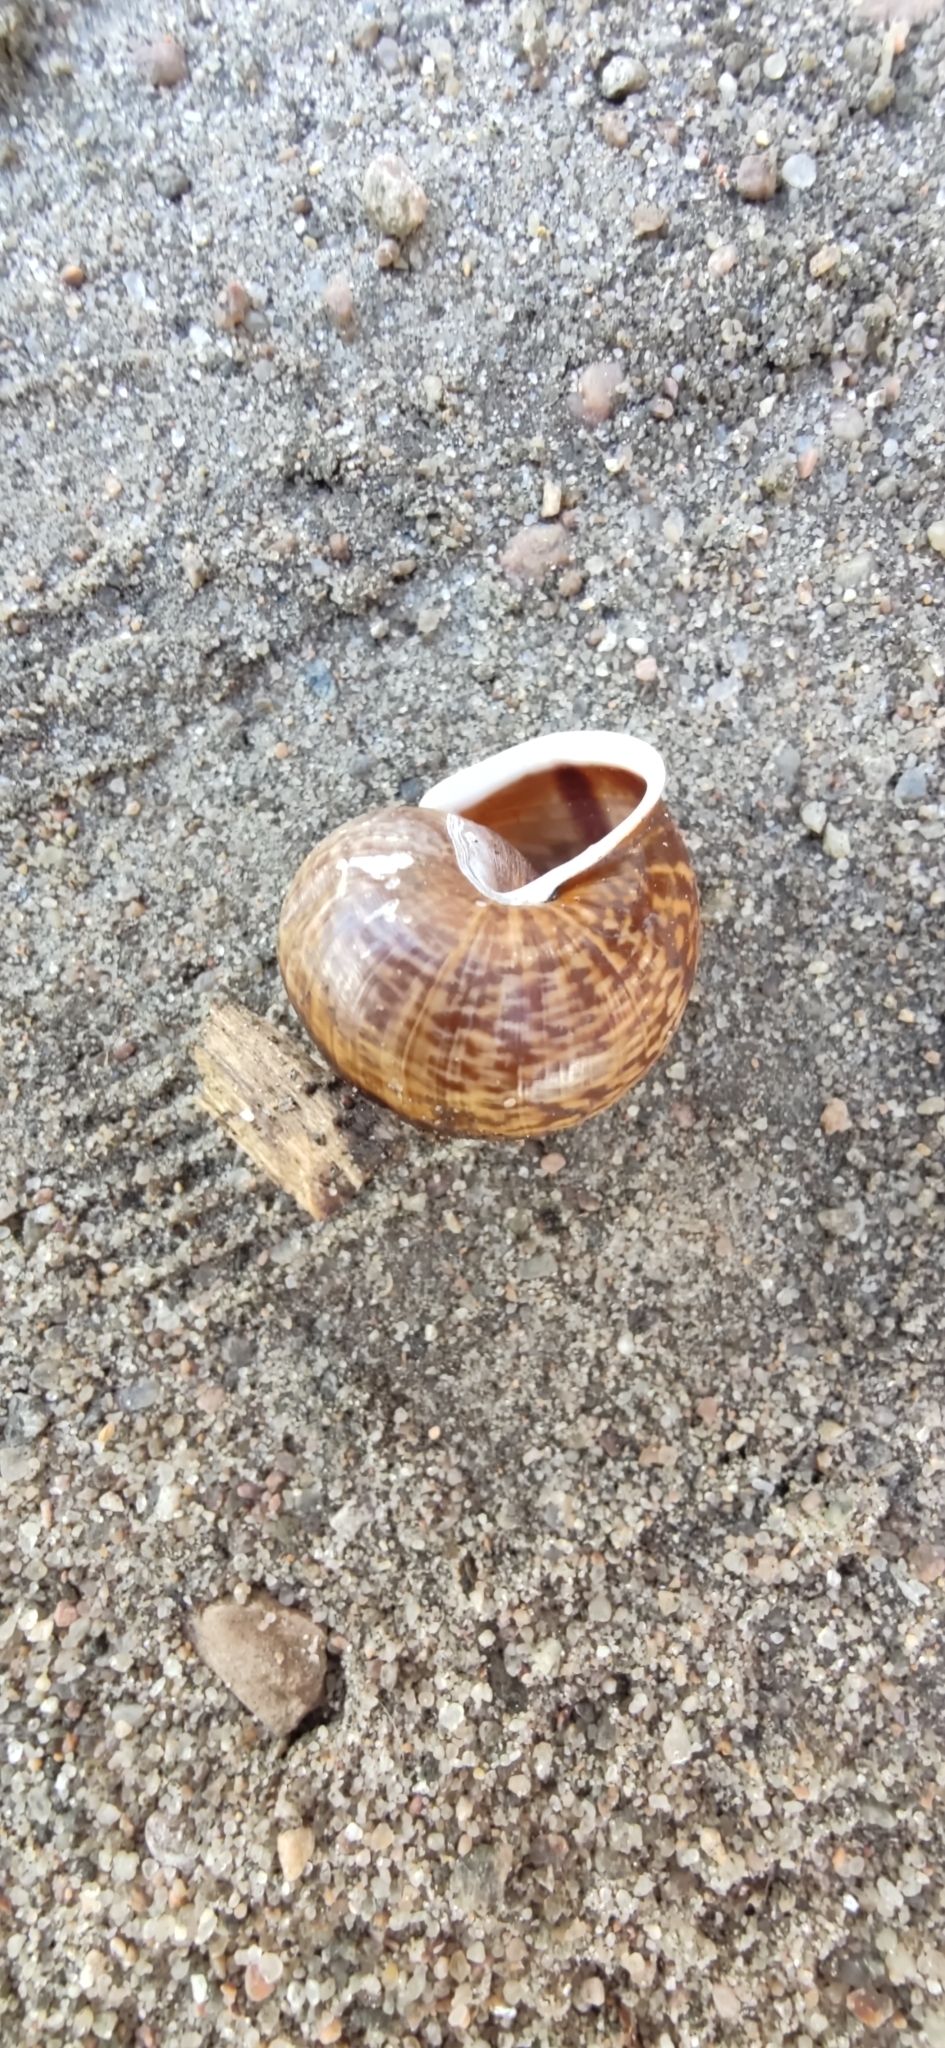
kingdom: Animalia
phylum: Mollusca
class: Gastropoda
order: Stylommatophora
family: Helicidae
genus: Arianta
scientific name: Arianta arbustorum
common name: Copse snail
